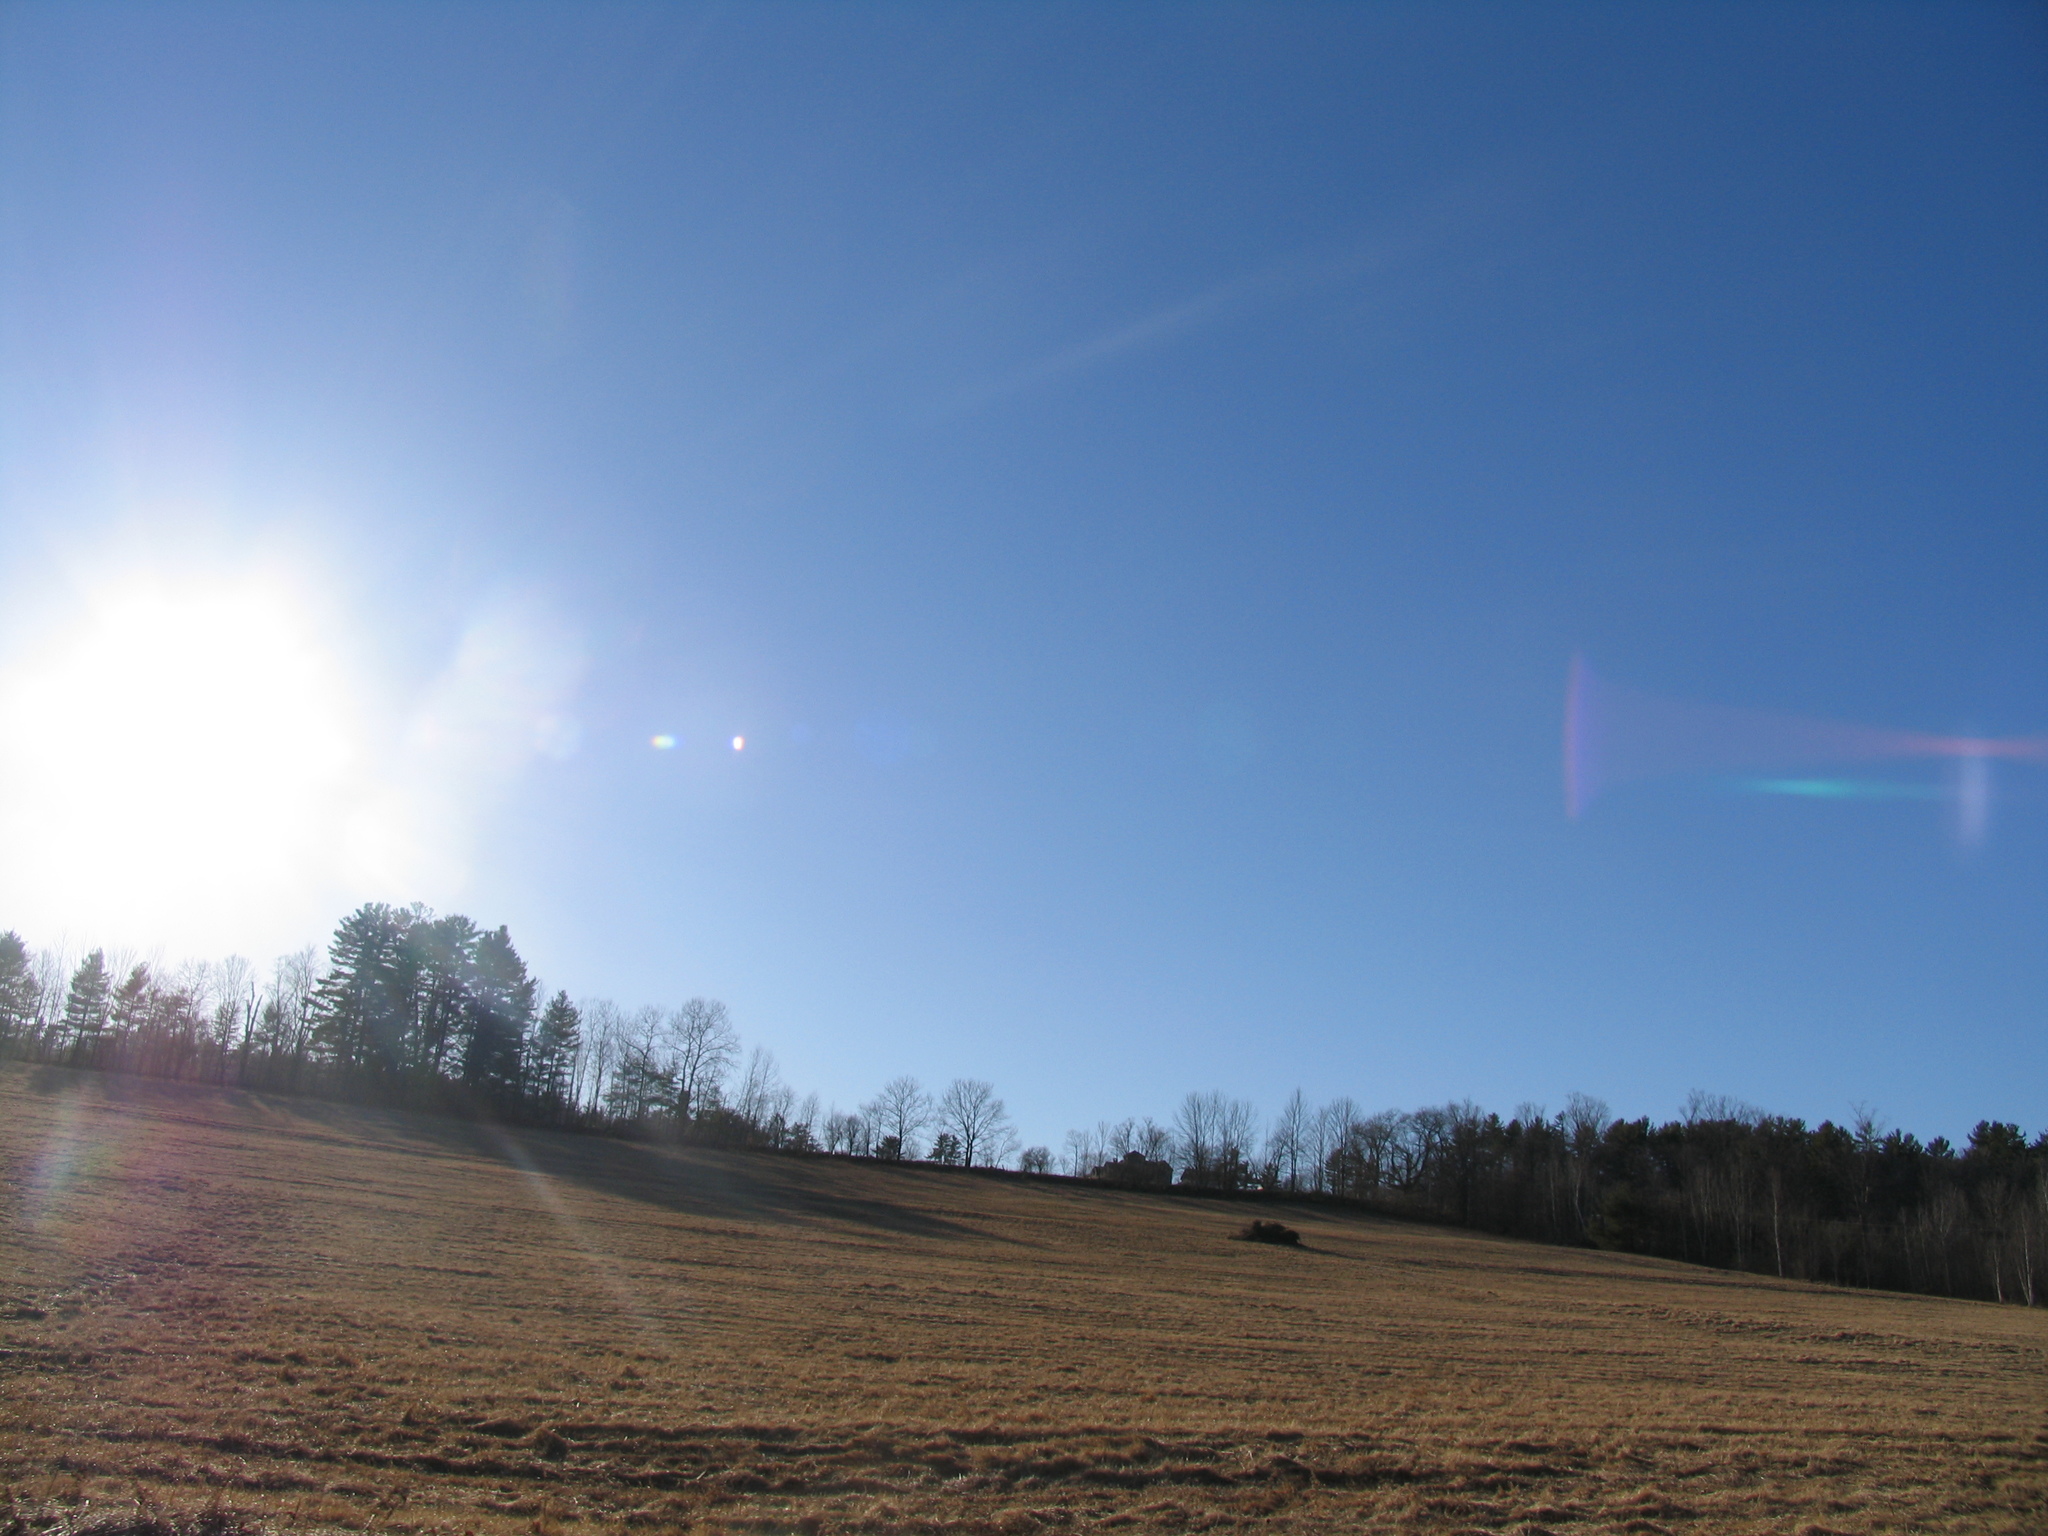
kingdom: Plantae
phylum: Tracheophyta
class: Pinopsida
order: Pinales
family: Pinaceae
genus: Pinus
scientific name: Pinus strobus
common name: Weymouth pine
